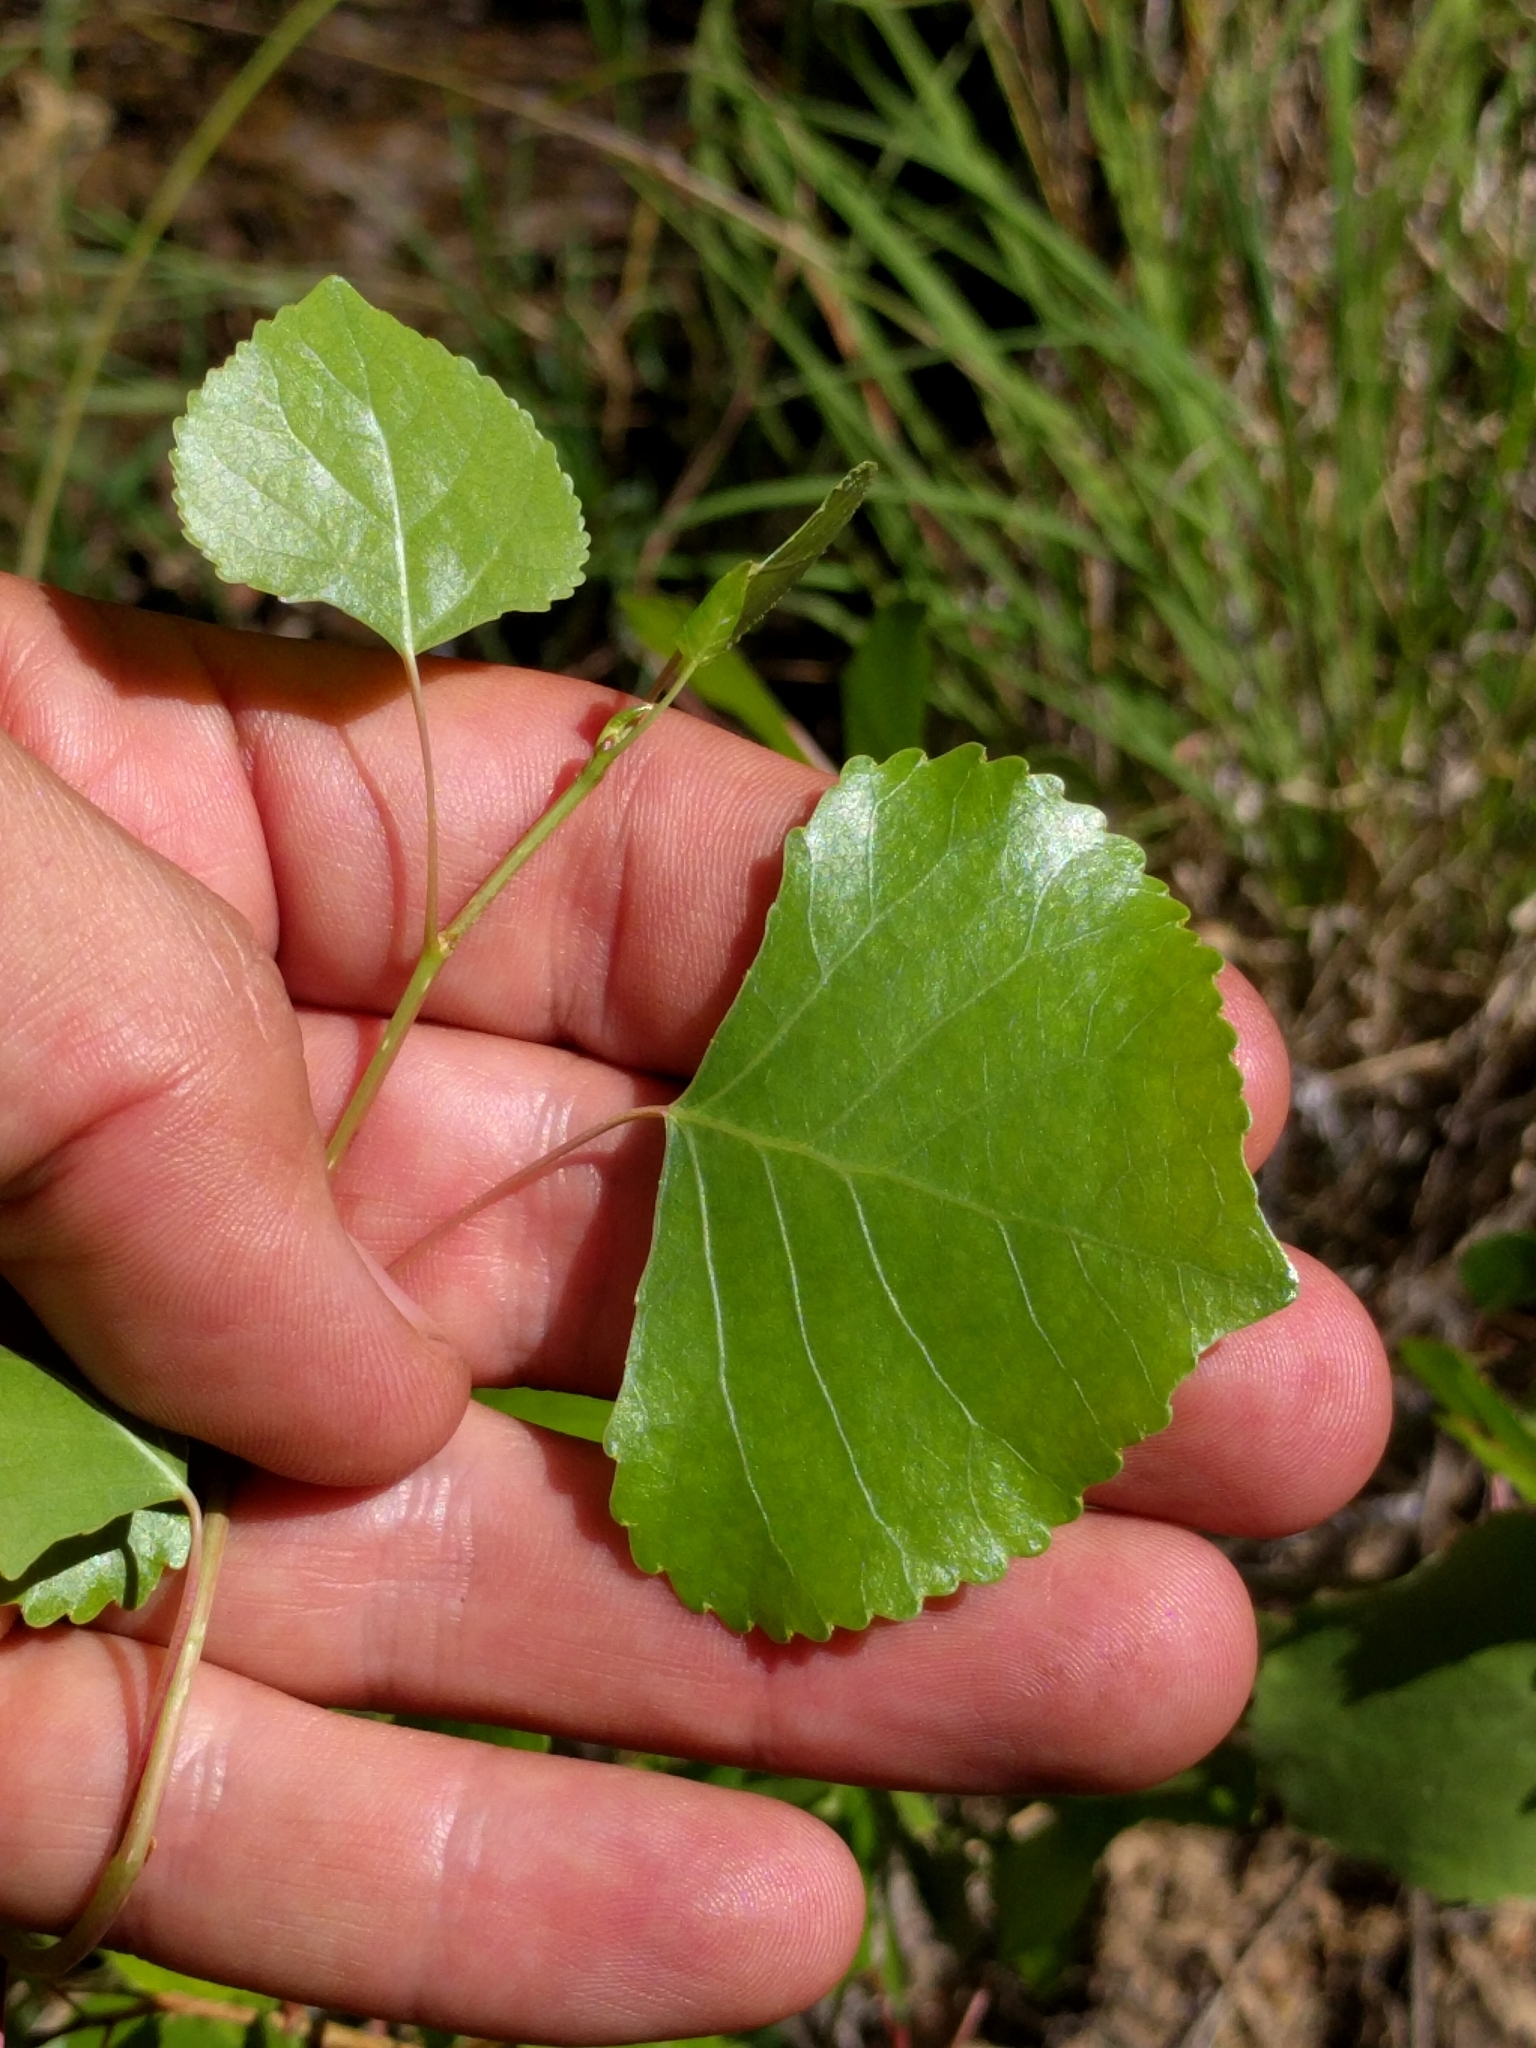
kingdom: Plantae
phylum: Tracheophyta
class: Magnoliopsida
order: Malpighiales
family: Salicaceae
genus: Populus
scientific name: Populus fremontii
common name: Fremont's cottonwood
